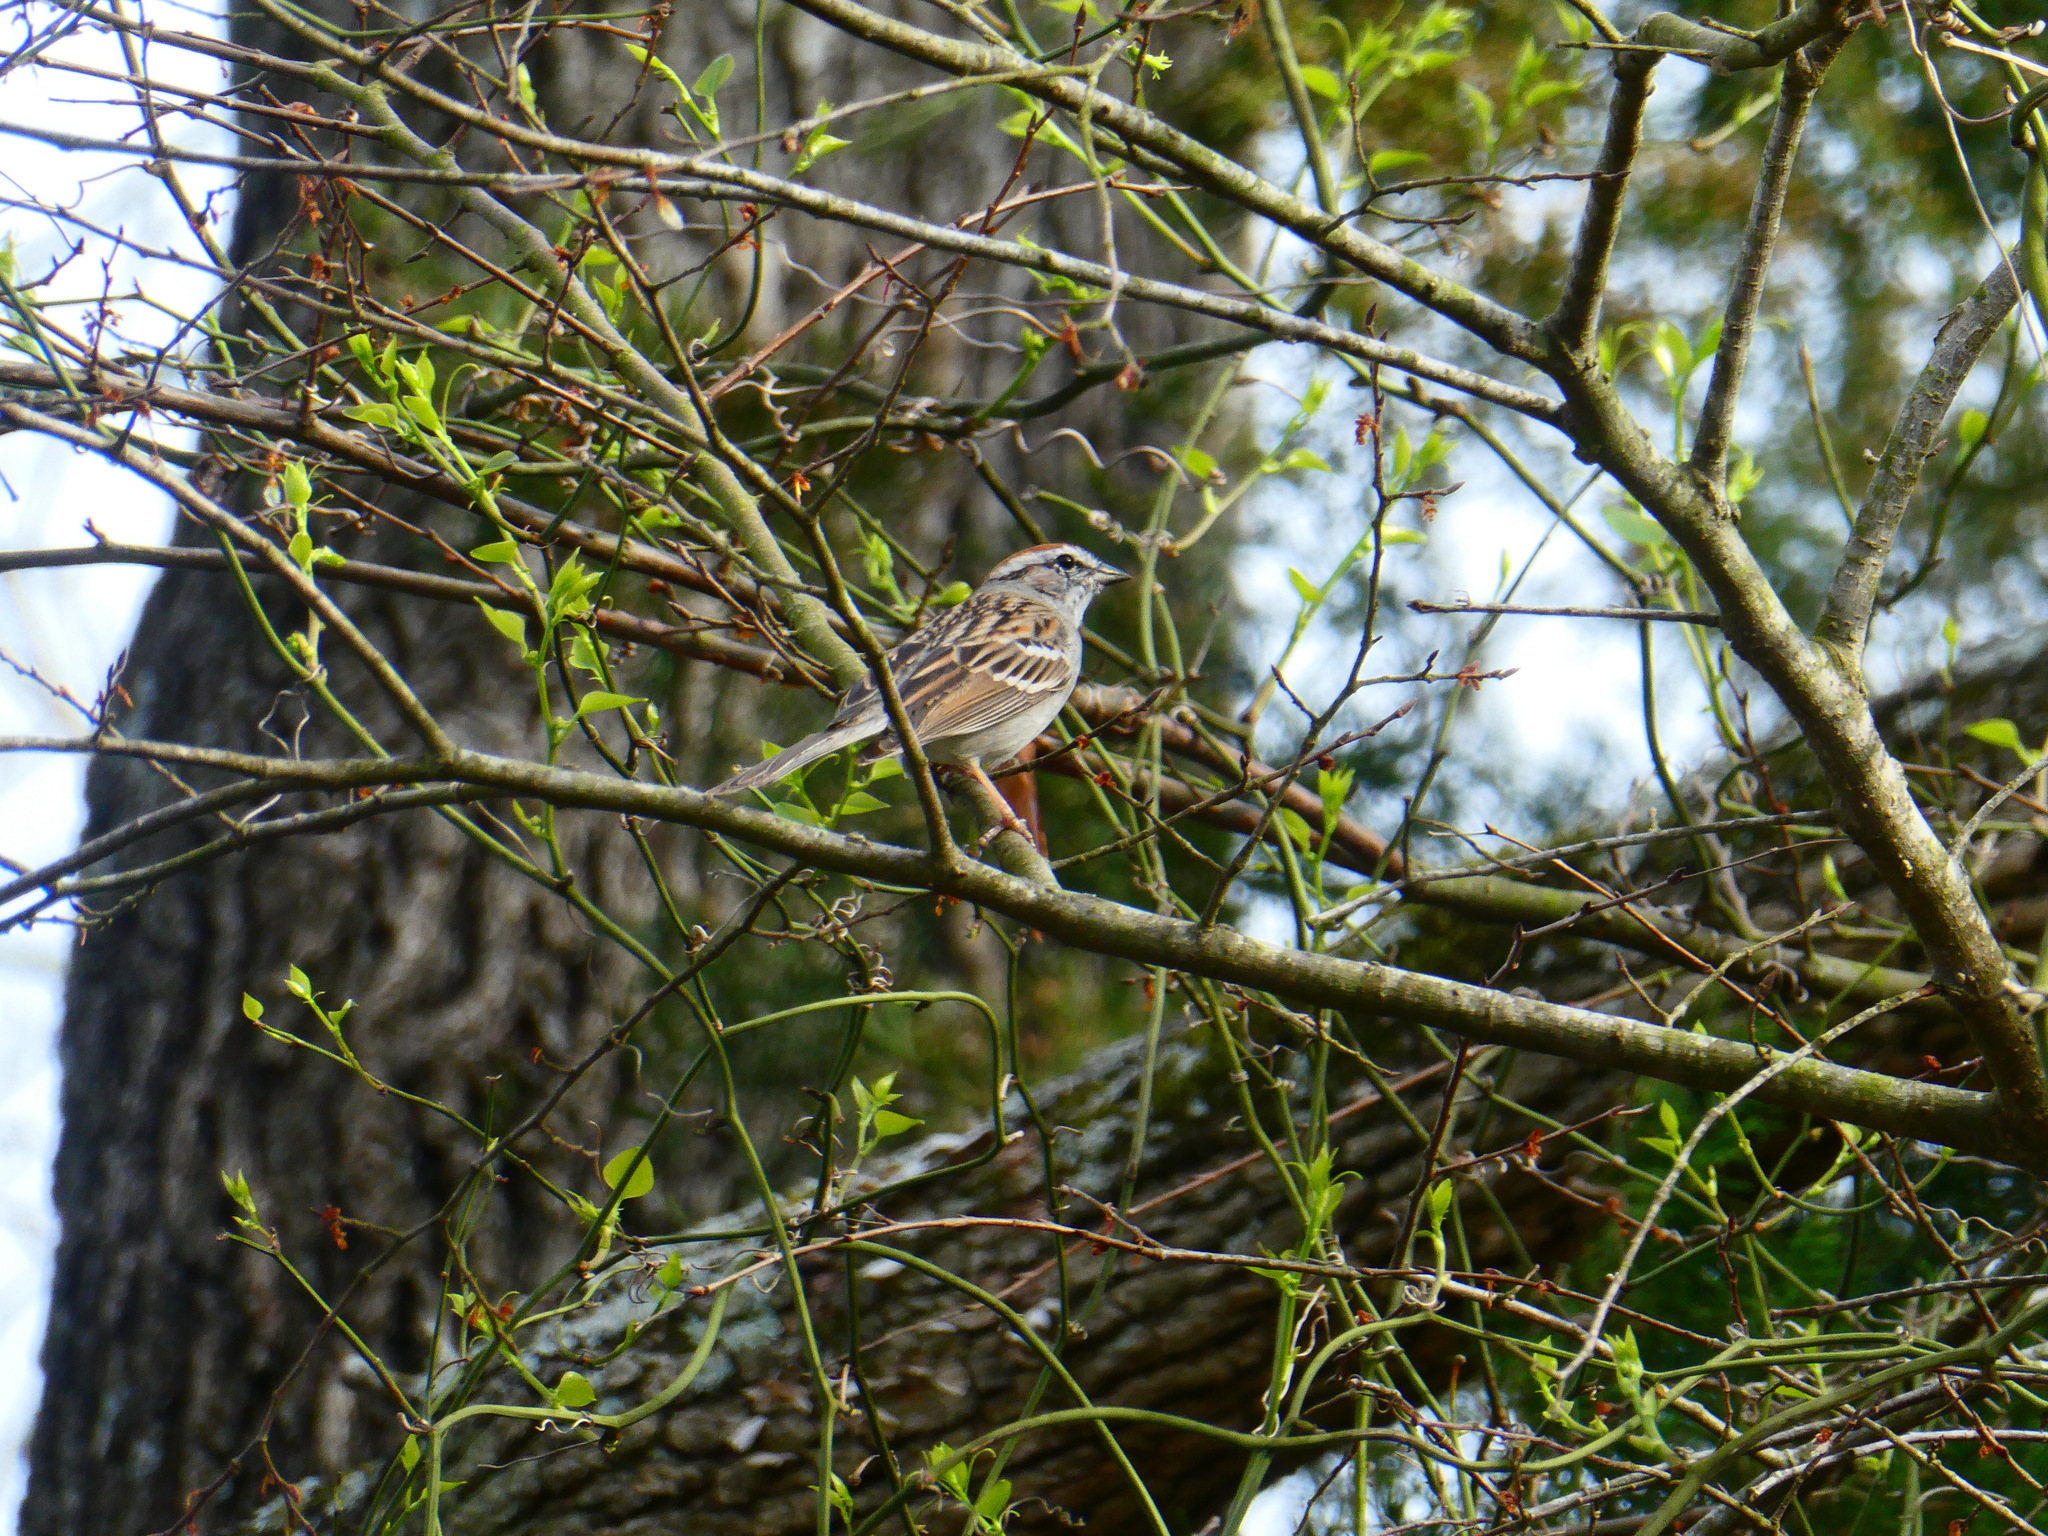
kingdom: Animalia
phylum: Chordata
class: Aves
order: Passeriformes
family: Passerellidae
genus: Spizella
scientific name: Spizella passerina
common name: Chipping sparrow
